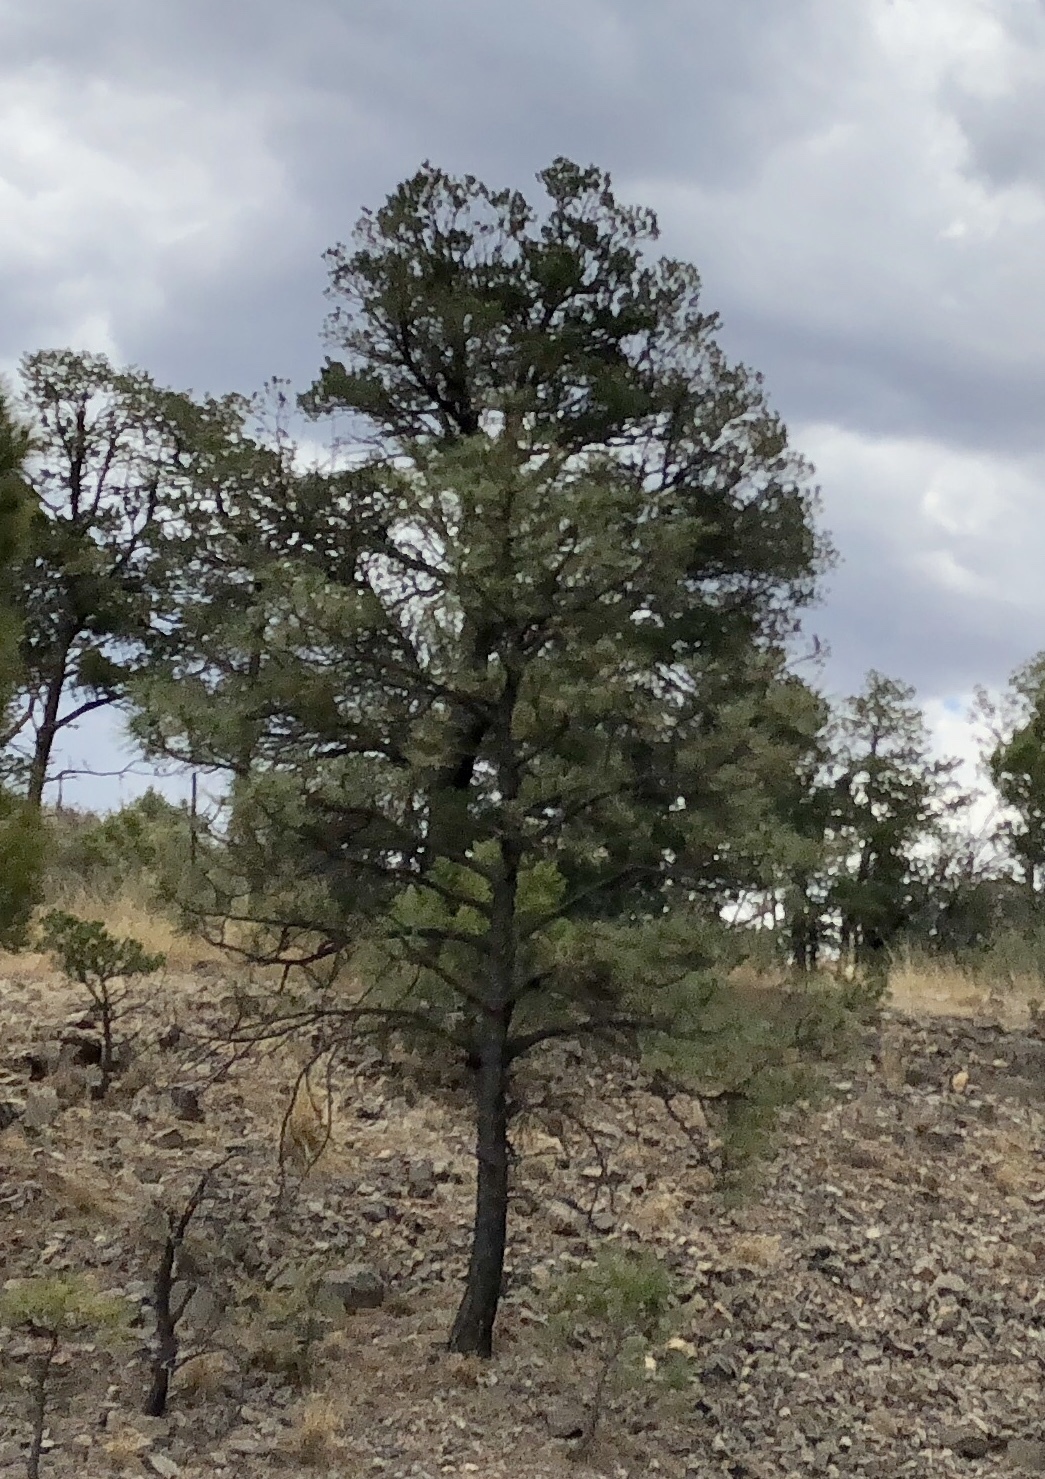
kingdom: Plantae
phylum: Tracheophyta
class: Pinopsida
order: Pinales
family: Pinaceae
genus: Pinus
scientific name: Pinus ponderosa
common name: Western yellow-pine
